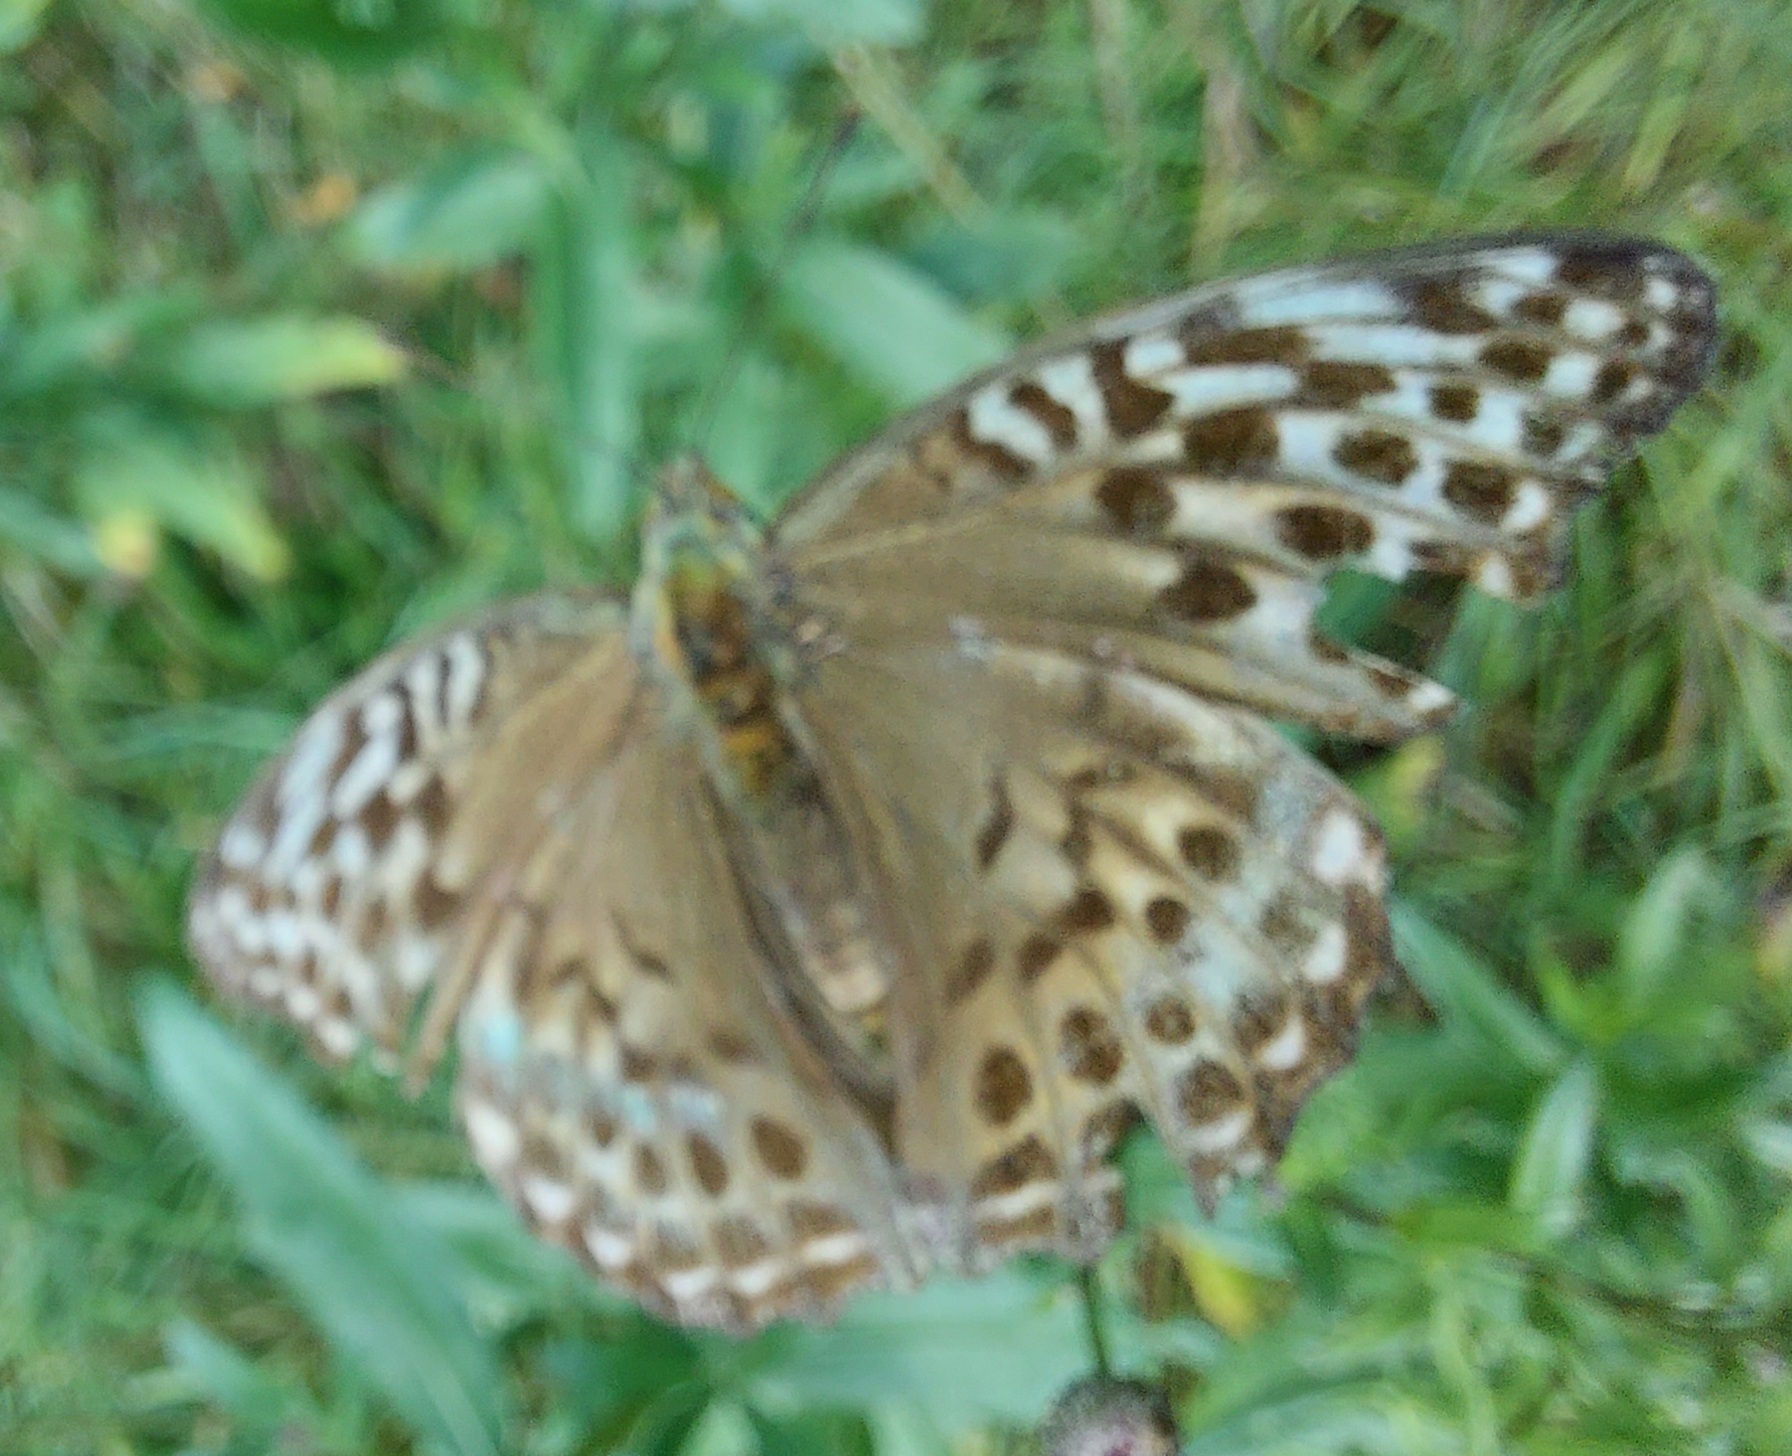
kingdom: Animalia
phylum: Arthropoda
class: Insecta
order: Lepidoptera
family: Nymphalidae
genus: Argynnis
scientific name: Argynnis paphia
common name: Silver-washed fritillary
